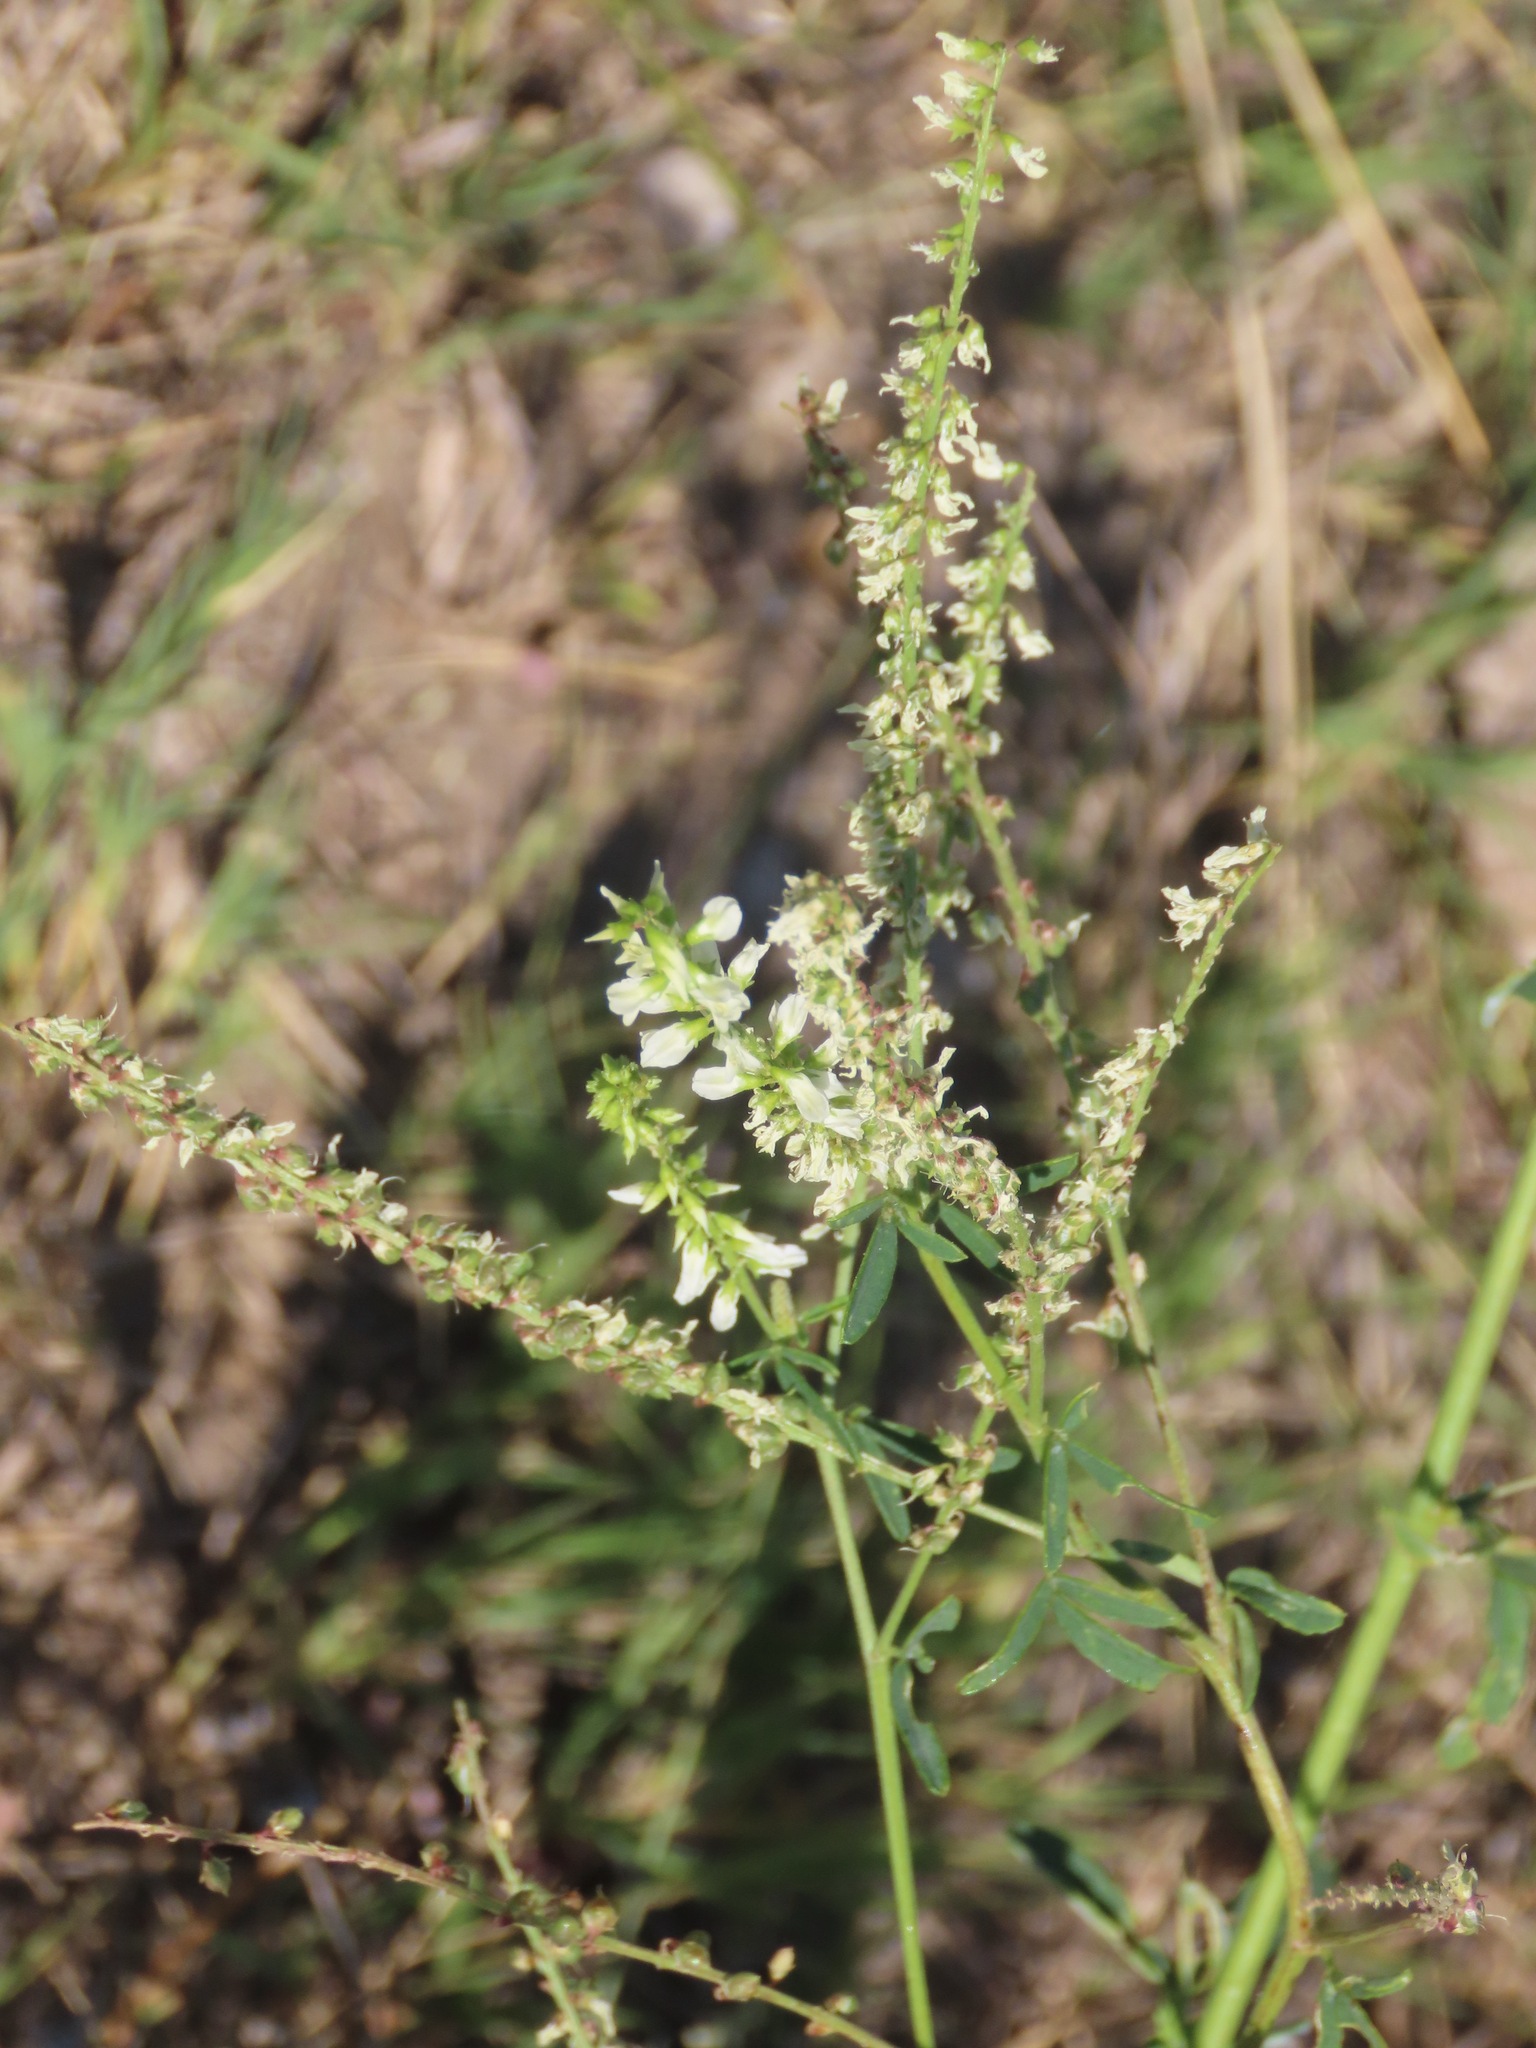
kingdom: Plantae
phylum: Tracheophyta
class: Magnoliopsida
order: Fabales
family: Fabaceae
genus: Melilotus
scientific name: Melilotus albus
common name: White melilot
